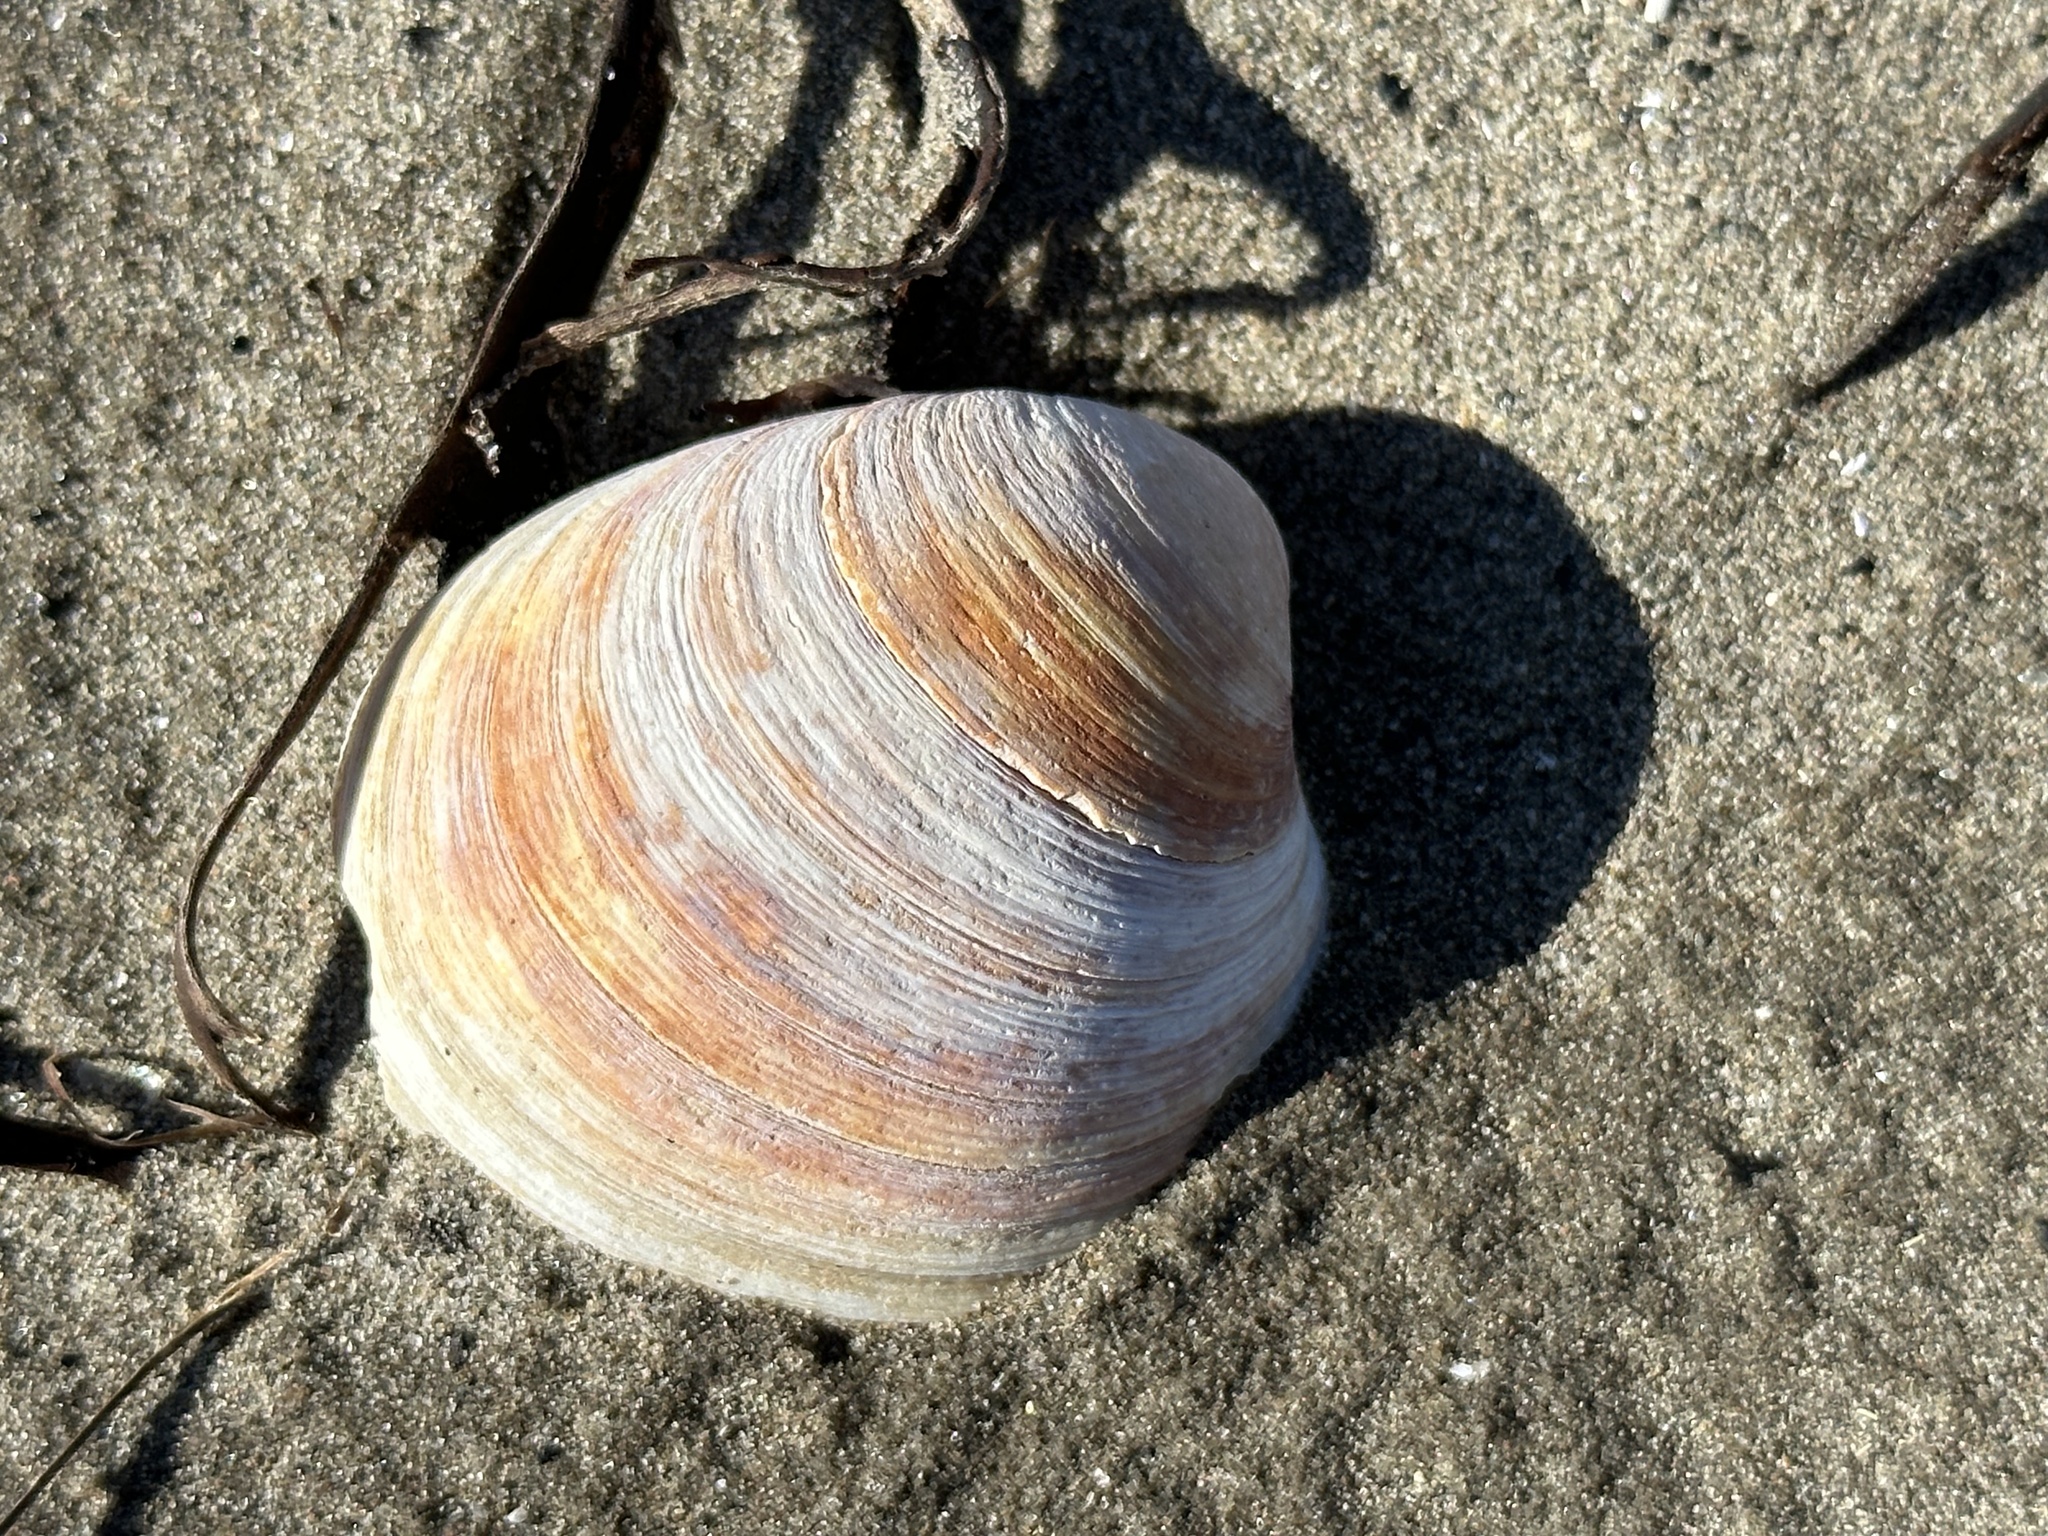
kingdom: Animalia
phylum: Mollusca
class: Bivalvia
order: Venerida
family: Veneridae
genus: Agriopoma
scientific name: Agriopoma morrhuanum
